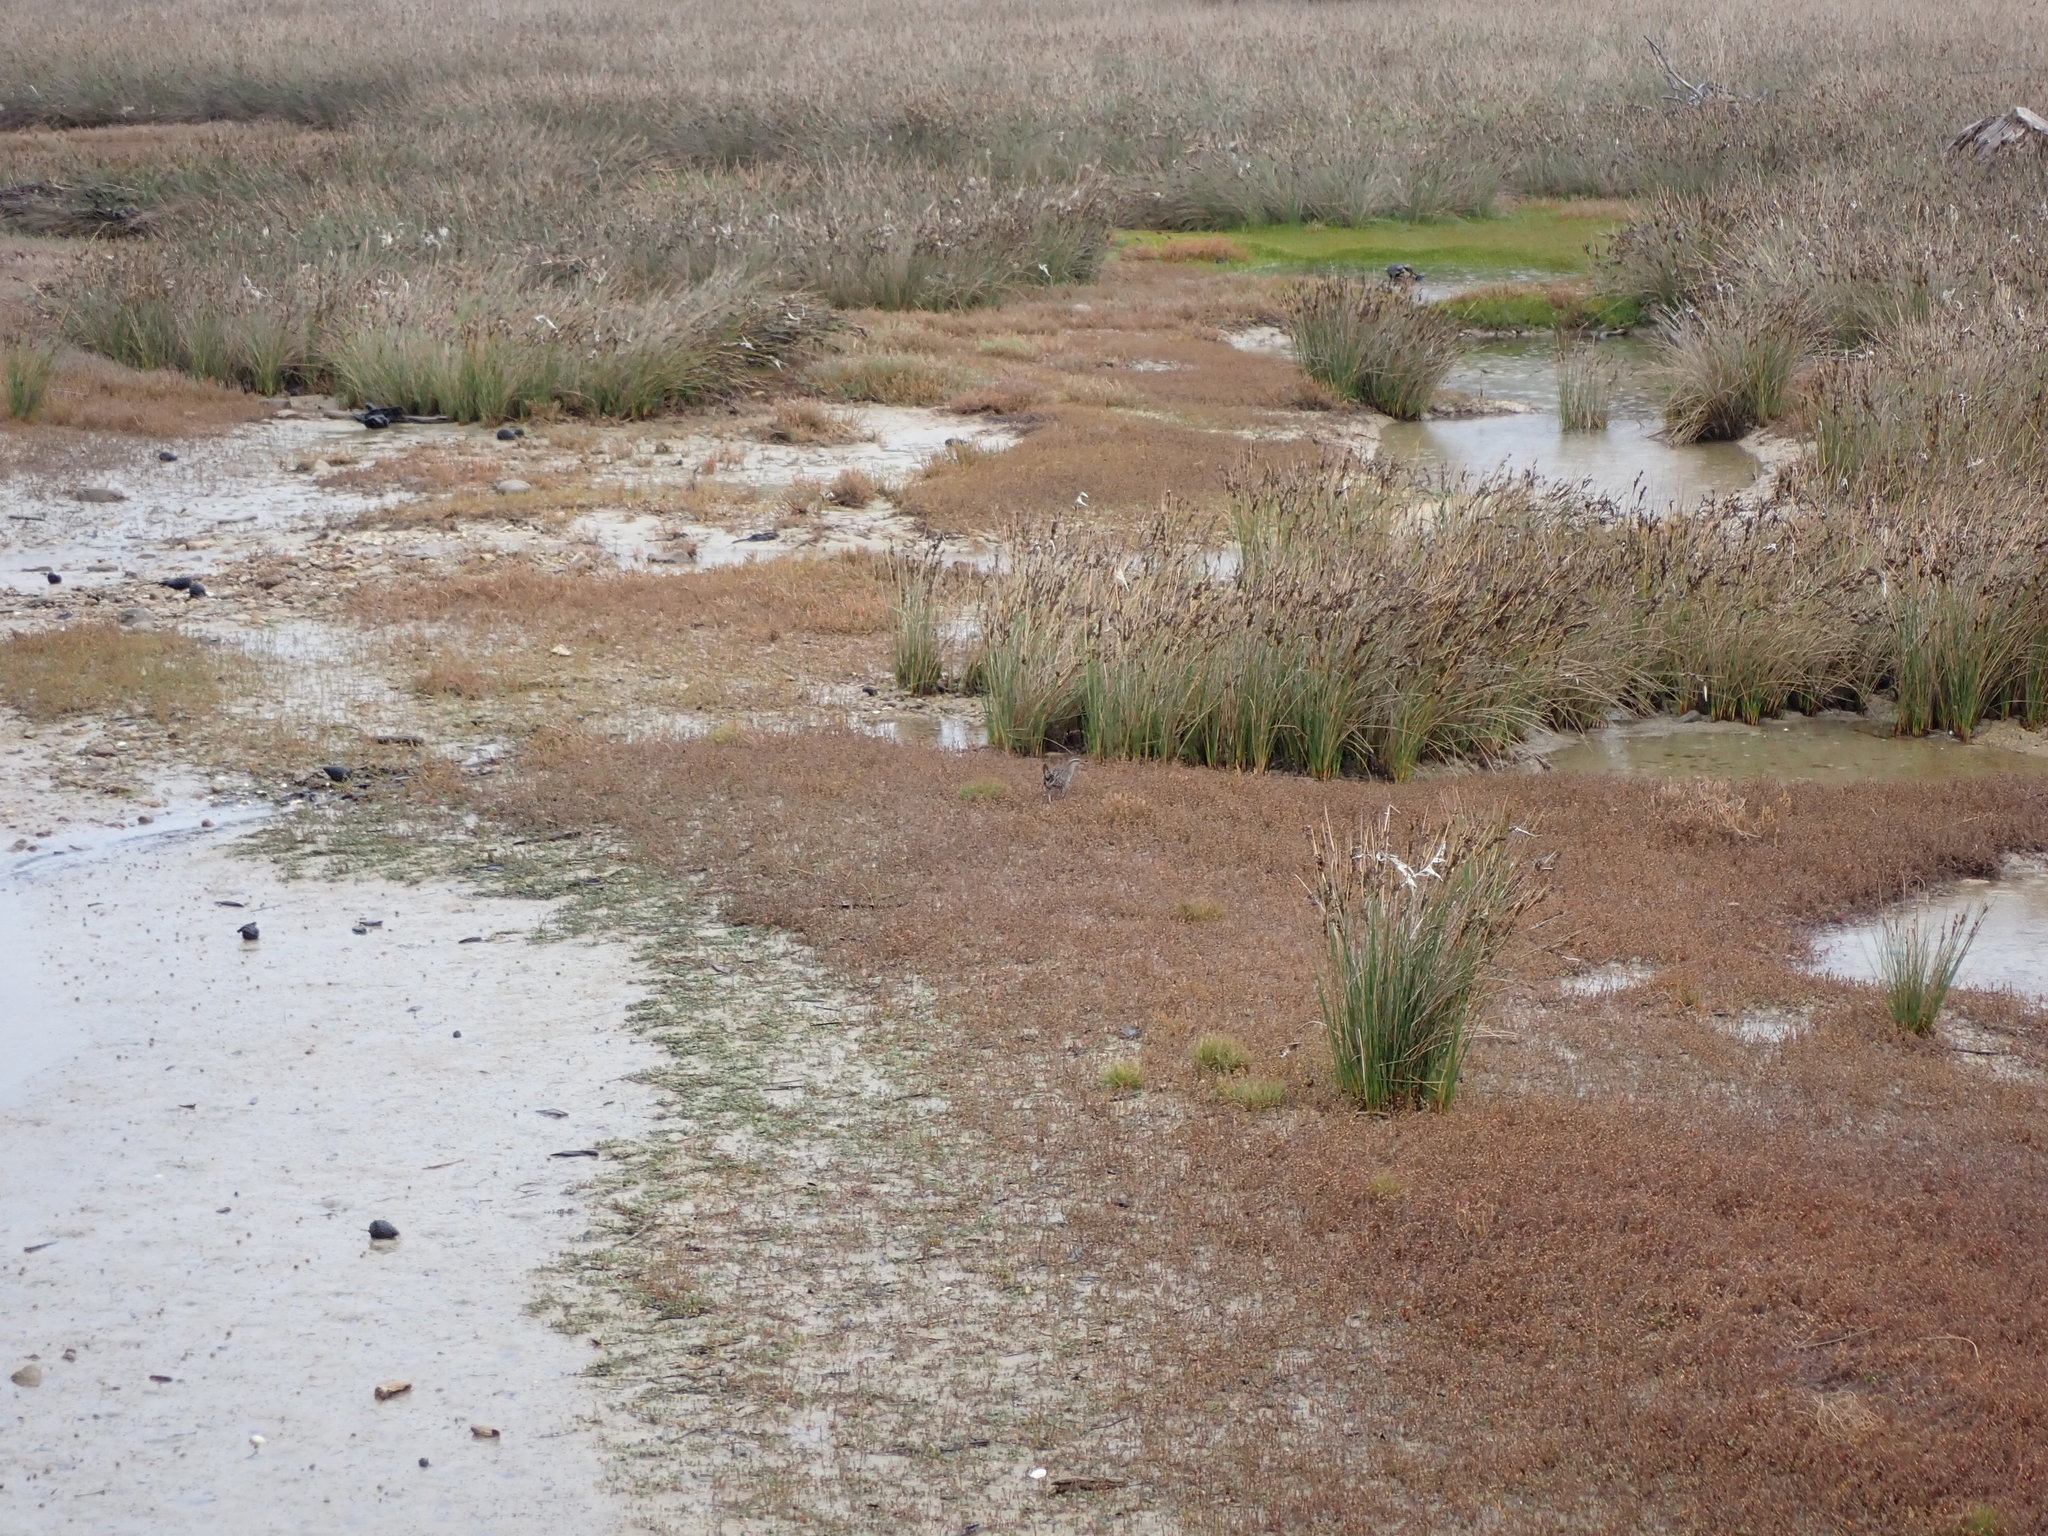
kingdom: Animalia
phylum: Chordata
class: Aves
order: Gruiformes
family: Rallidae
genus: Gallirallus
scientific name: Gallirallus philippensis
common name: Buff-banded rail
